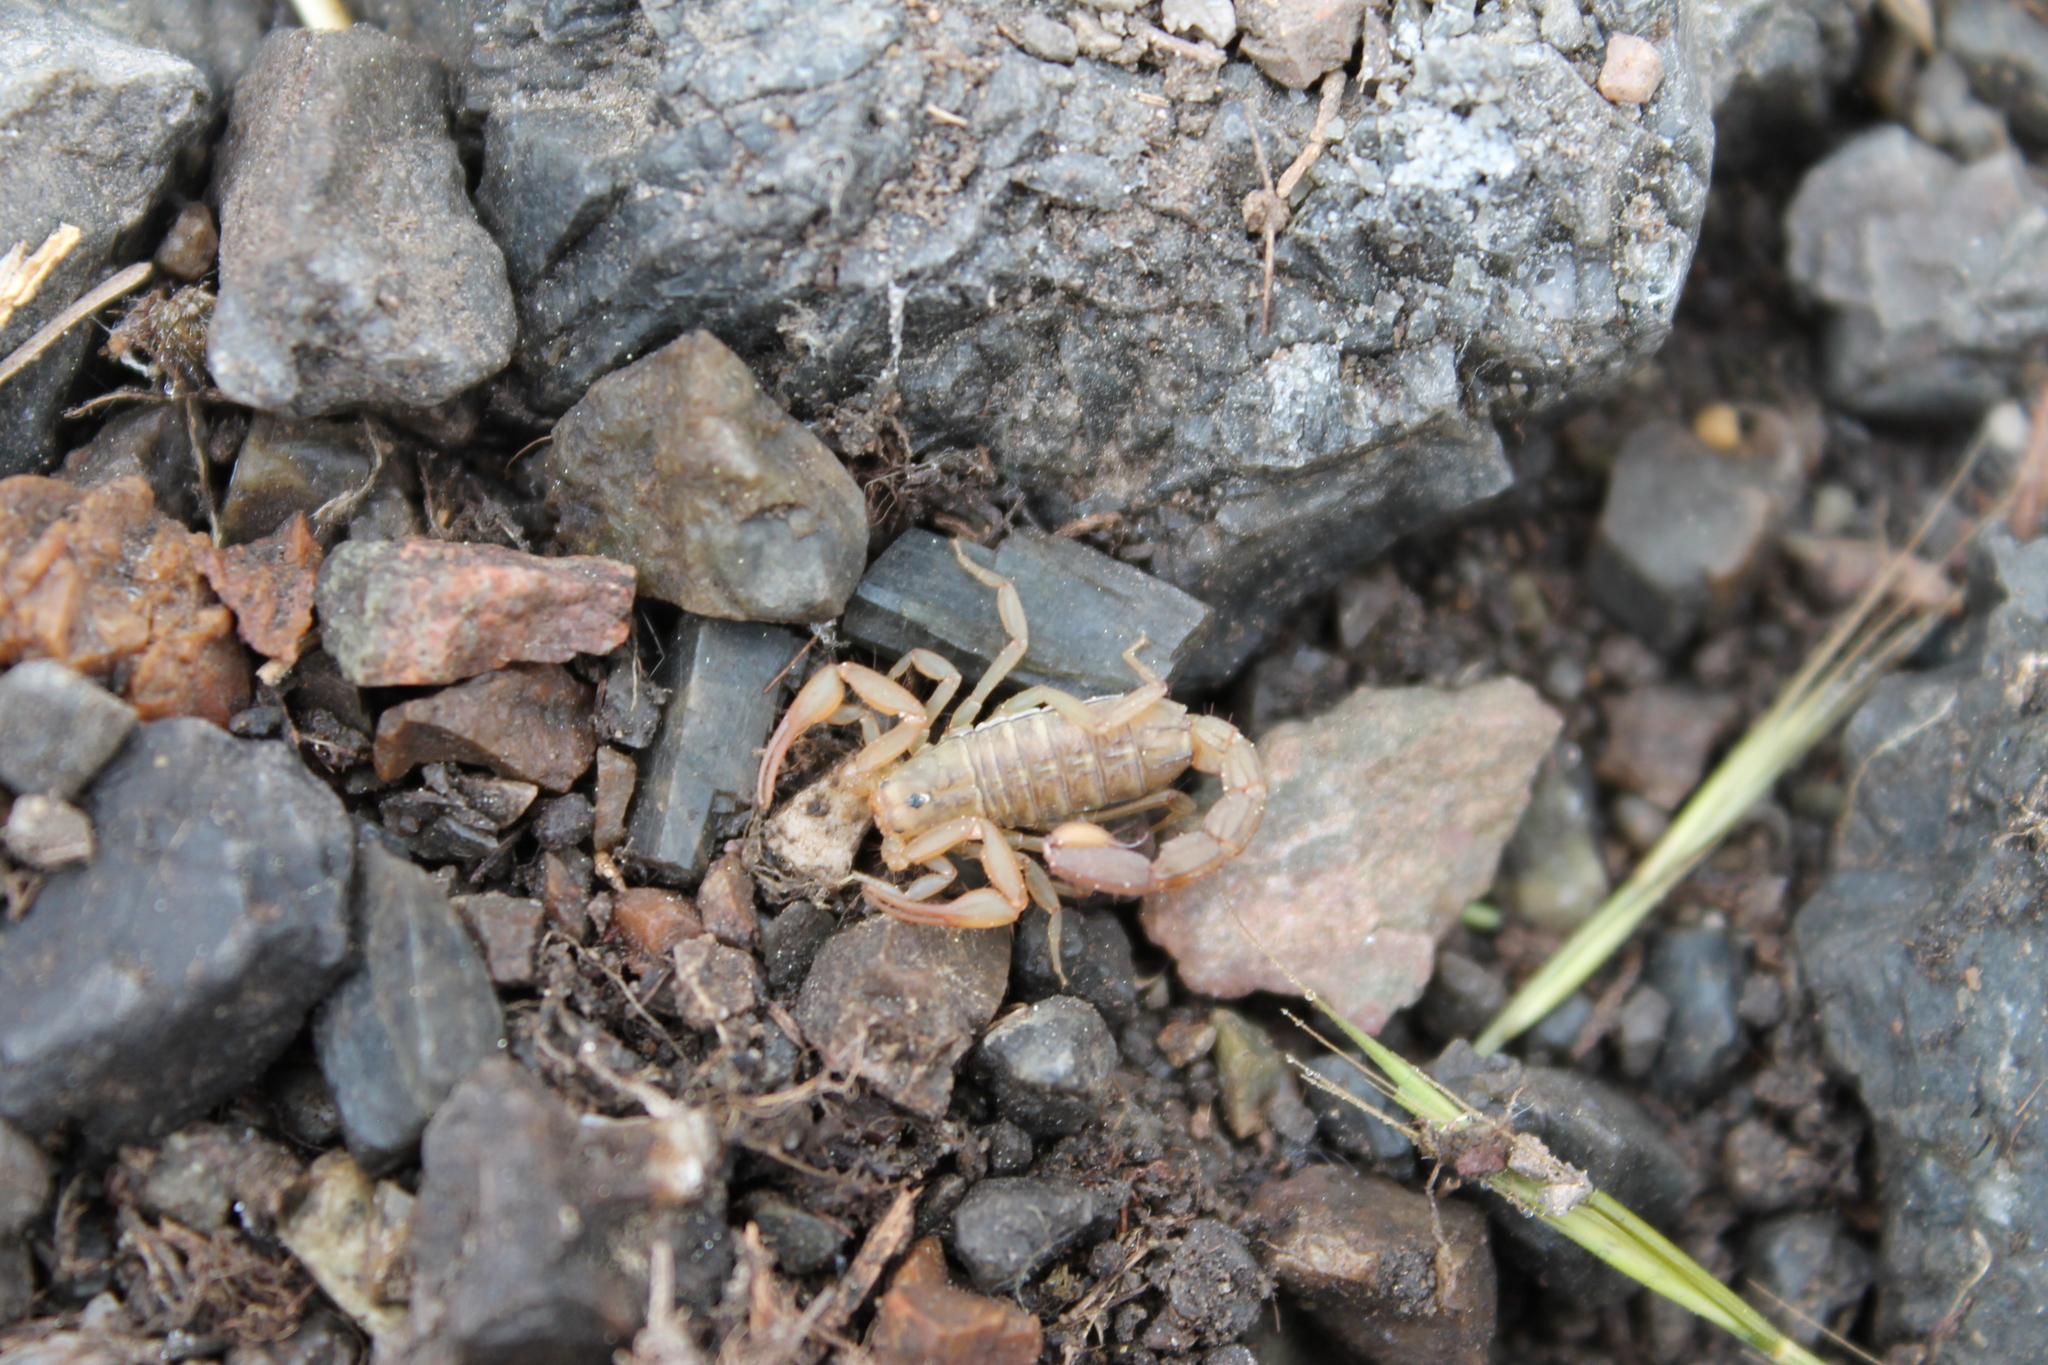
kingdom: Animalia
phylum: Arthropoda
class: Arachnida
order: Scorpiones
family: Vaejovidae
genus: Serradigitus
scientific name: Serradigitus gertschi
